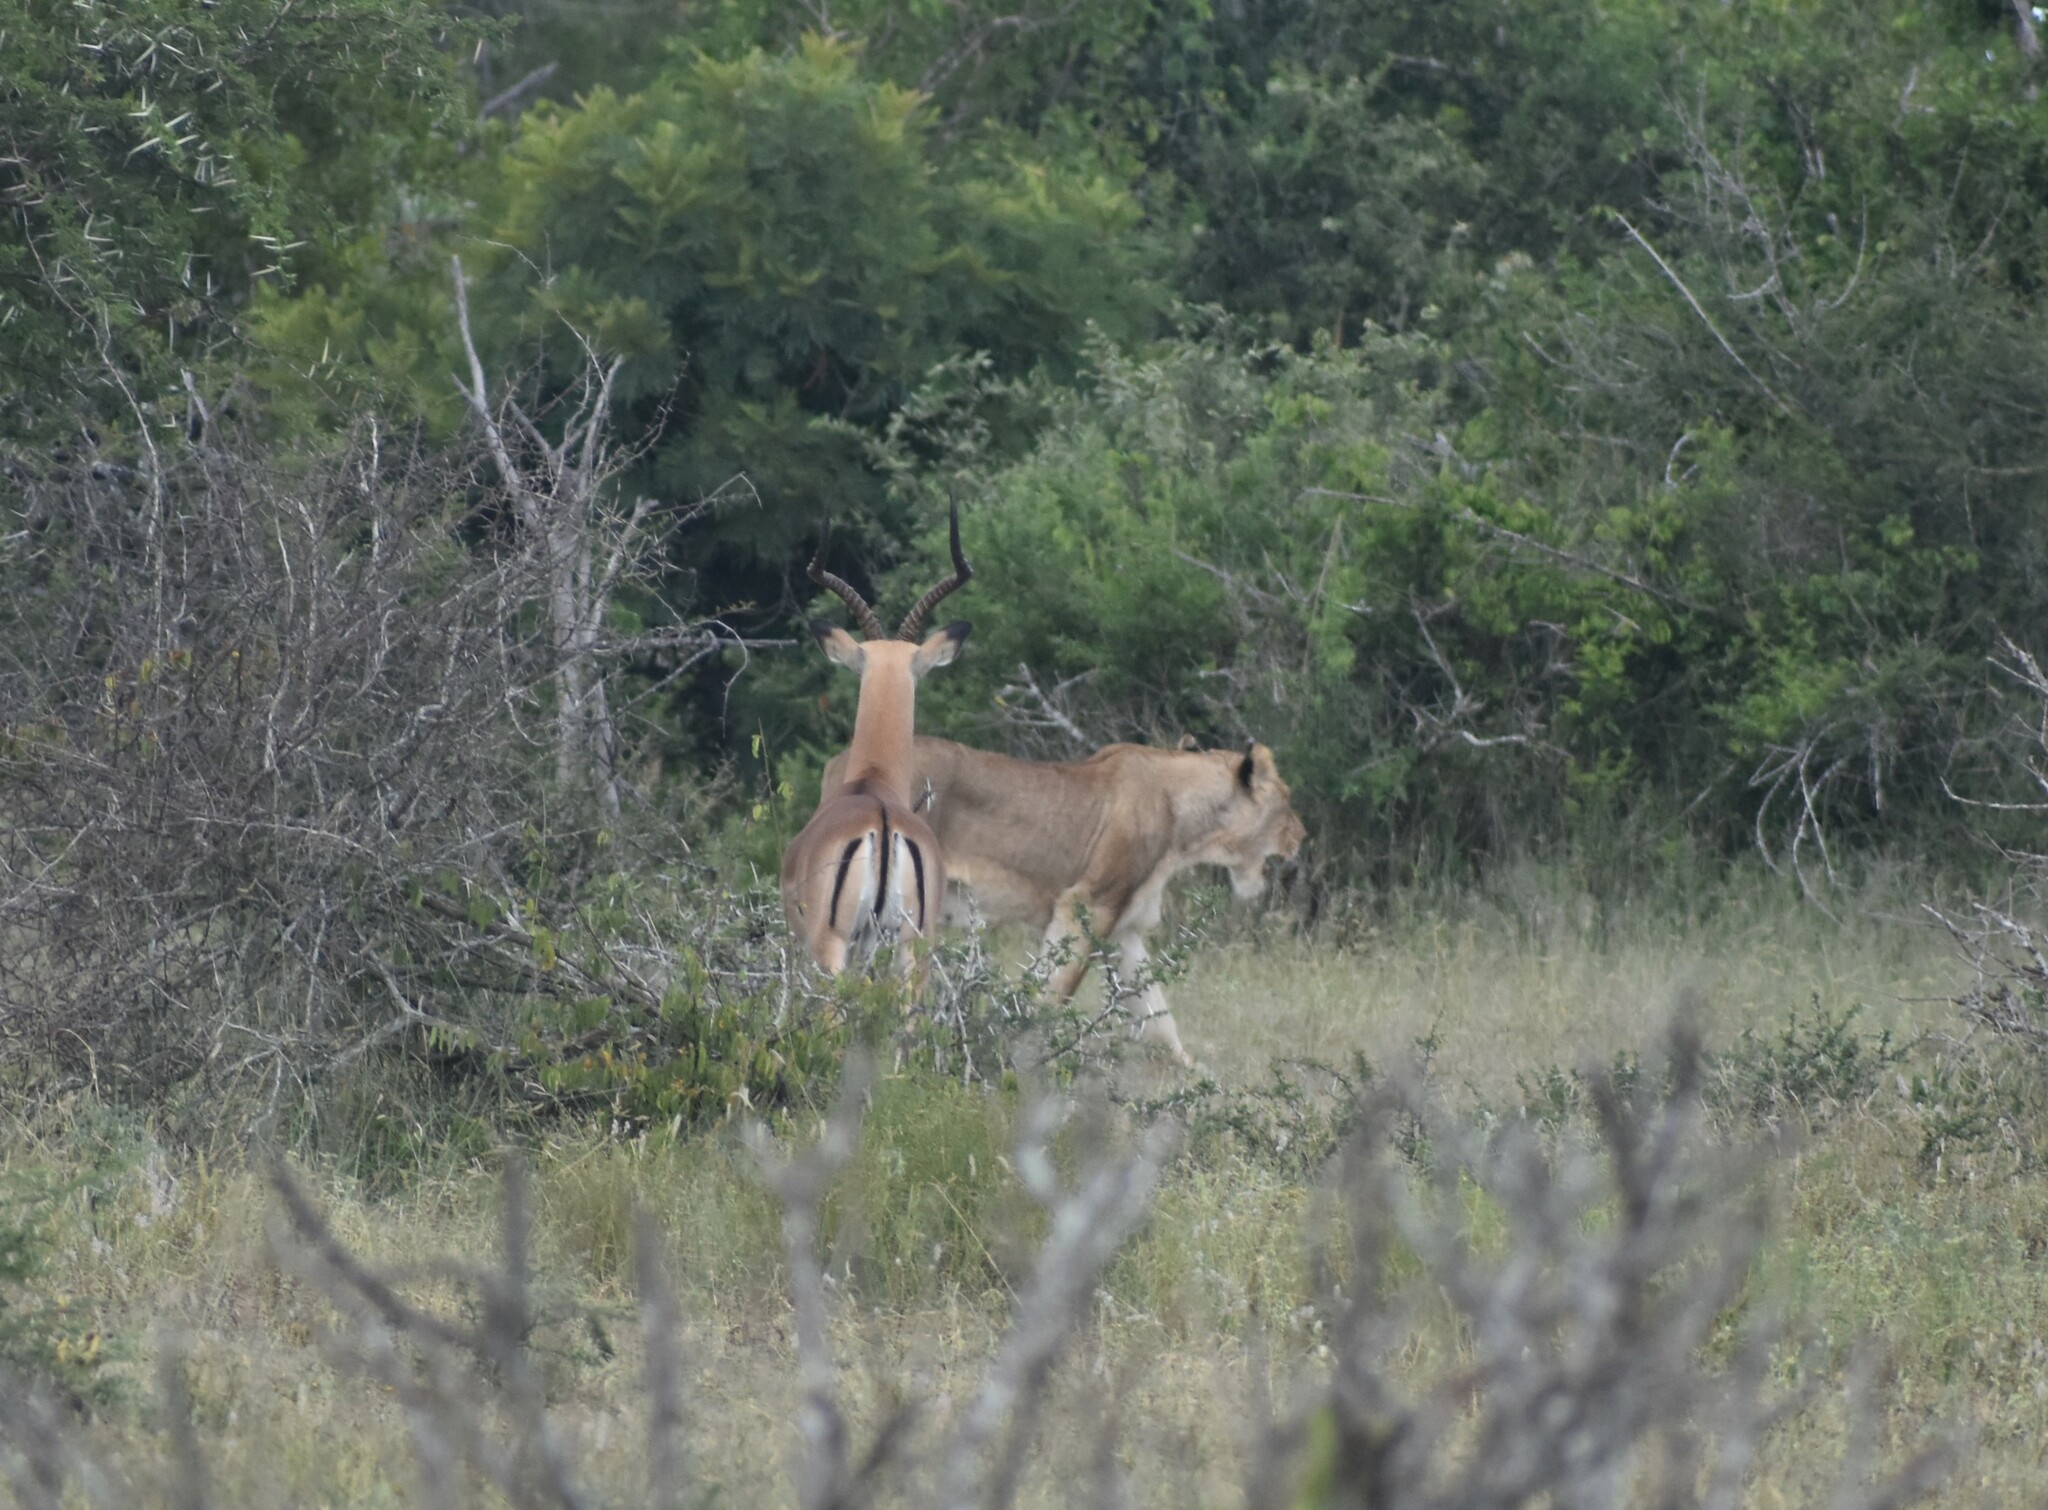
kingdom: Animalia
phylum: Chordata
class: Mammalia
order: Artiodactyla
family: Bovidae
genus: Aepyceros
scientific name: Aepyceros melampus
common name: Impala
